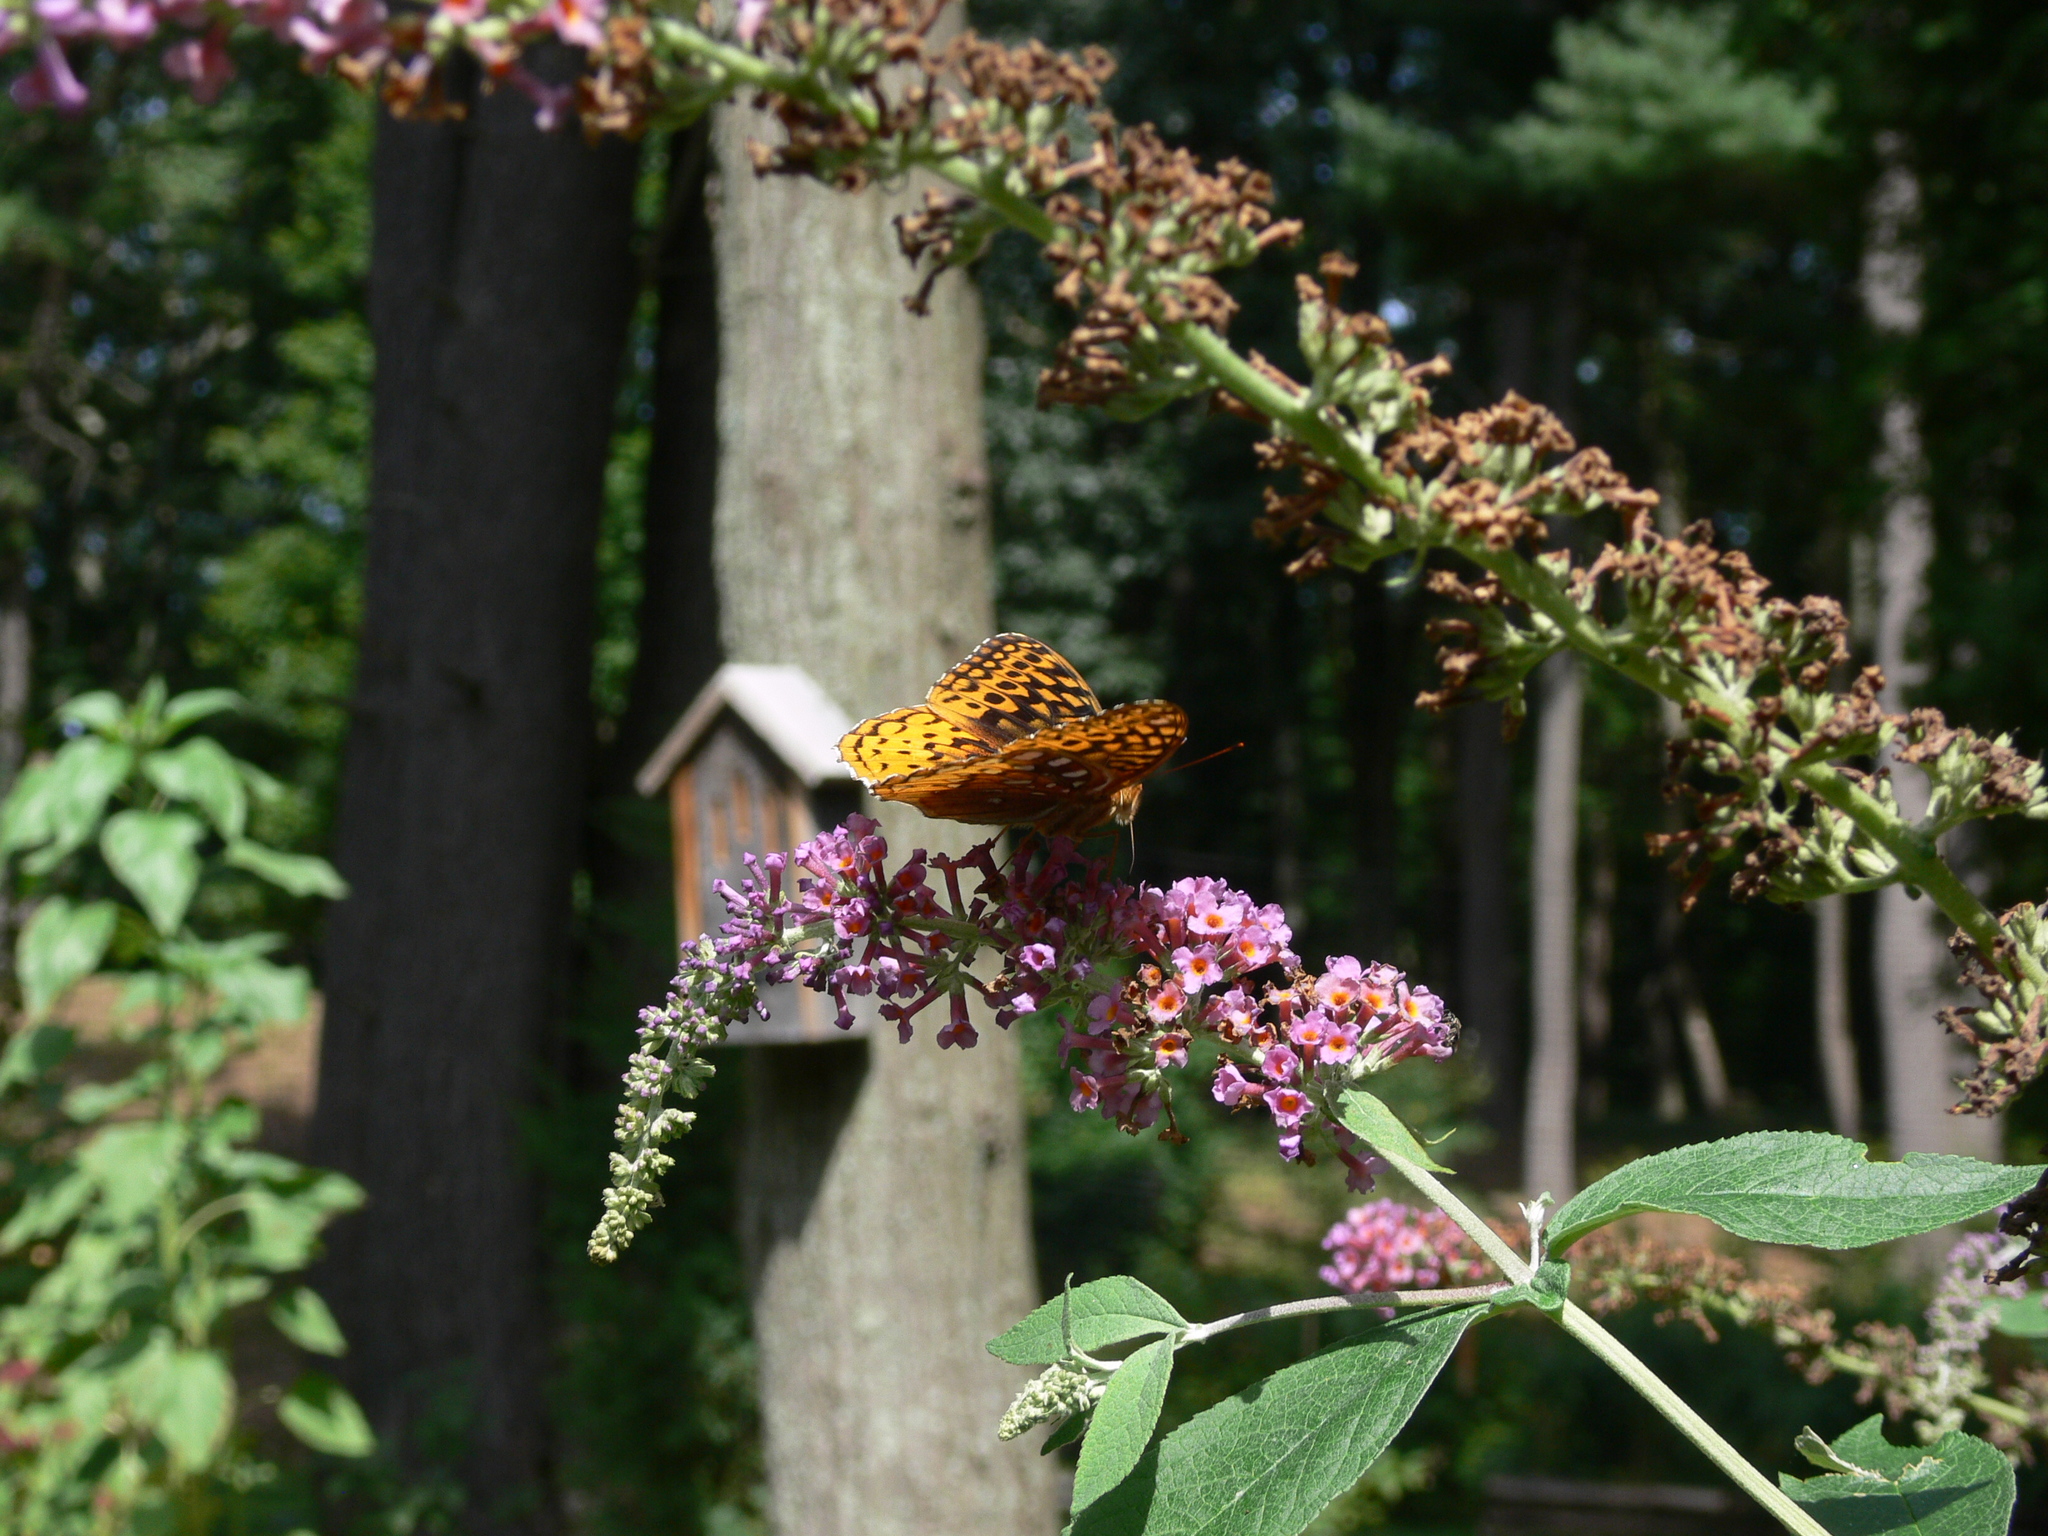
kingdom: Animalia
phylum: Arthropoda
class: Insecta
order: Lepidoptera
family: Nymphalidae
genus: Speyeria
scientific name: Speyeria cybele
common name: Great spangled fritillary
